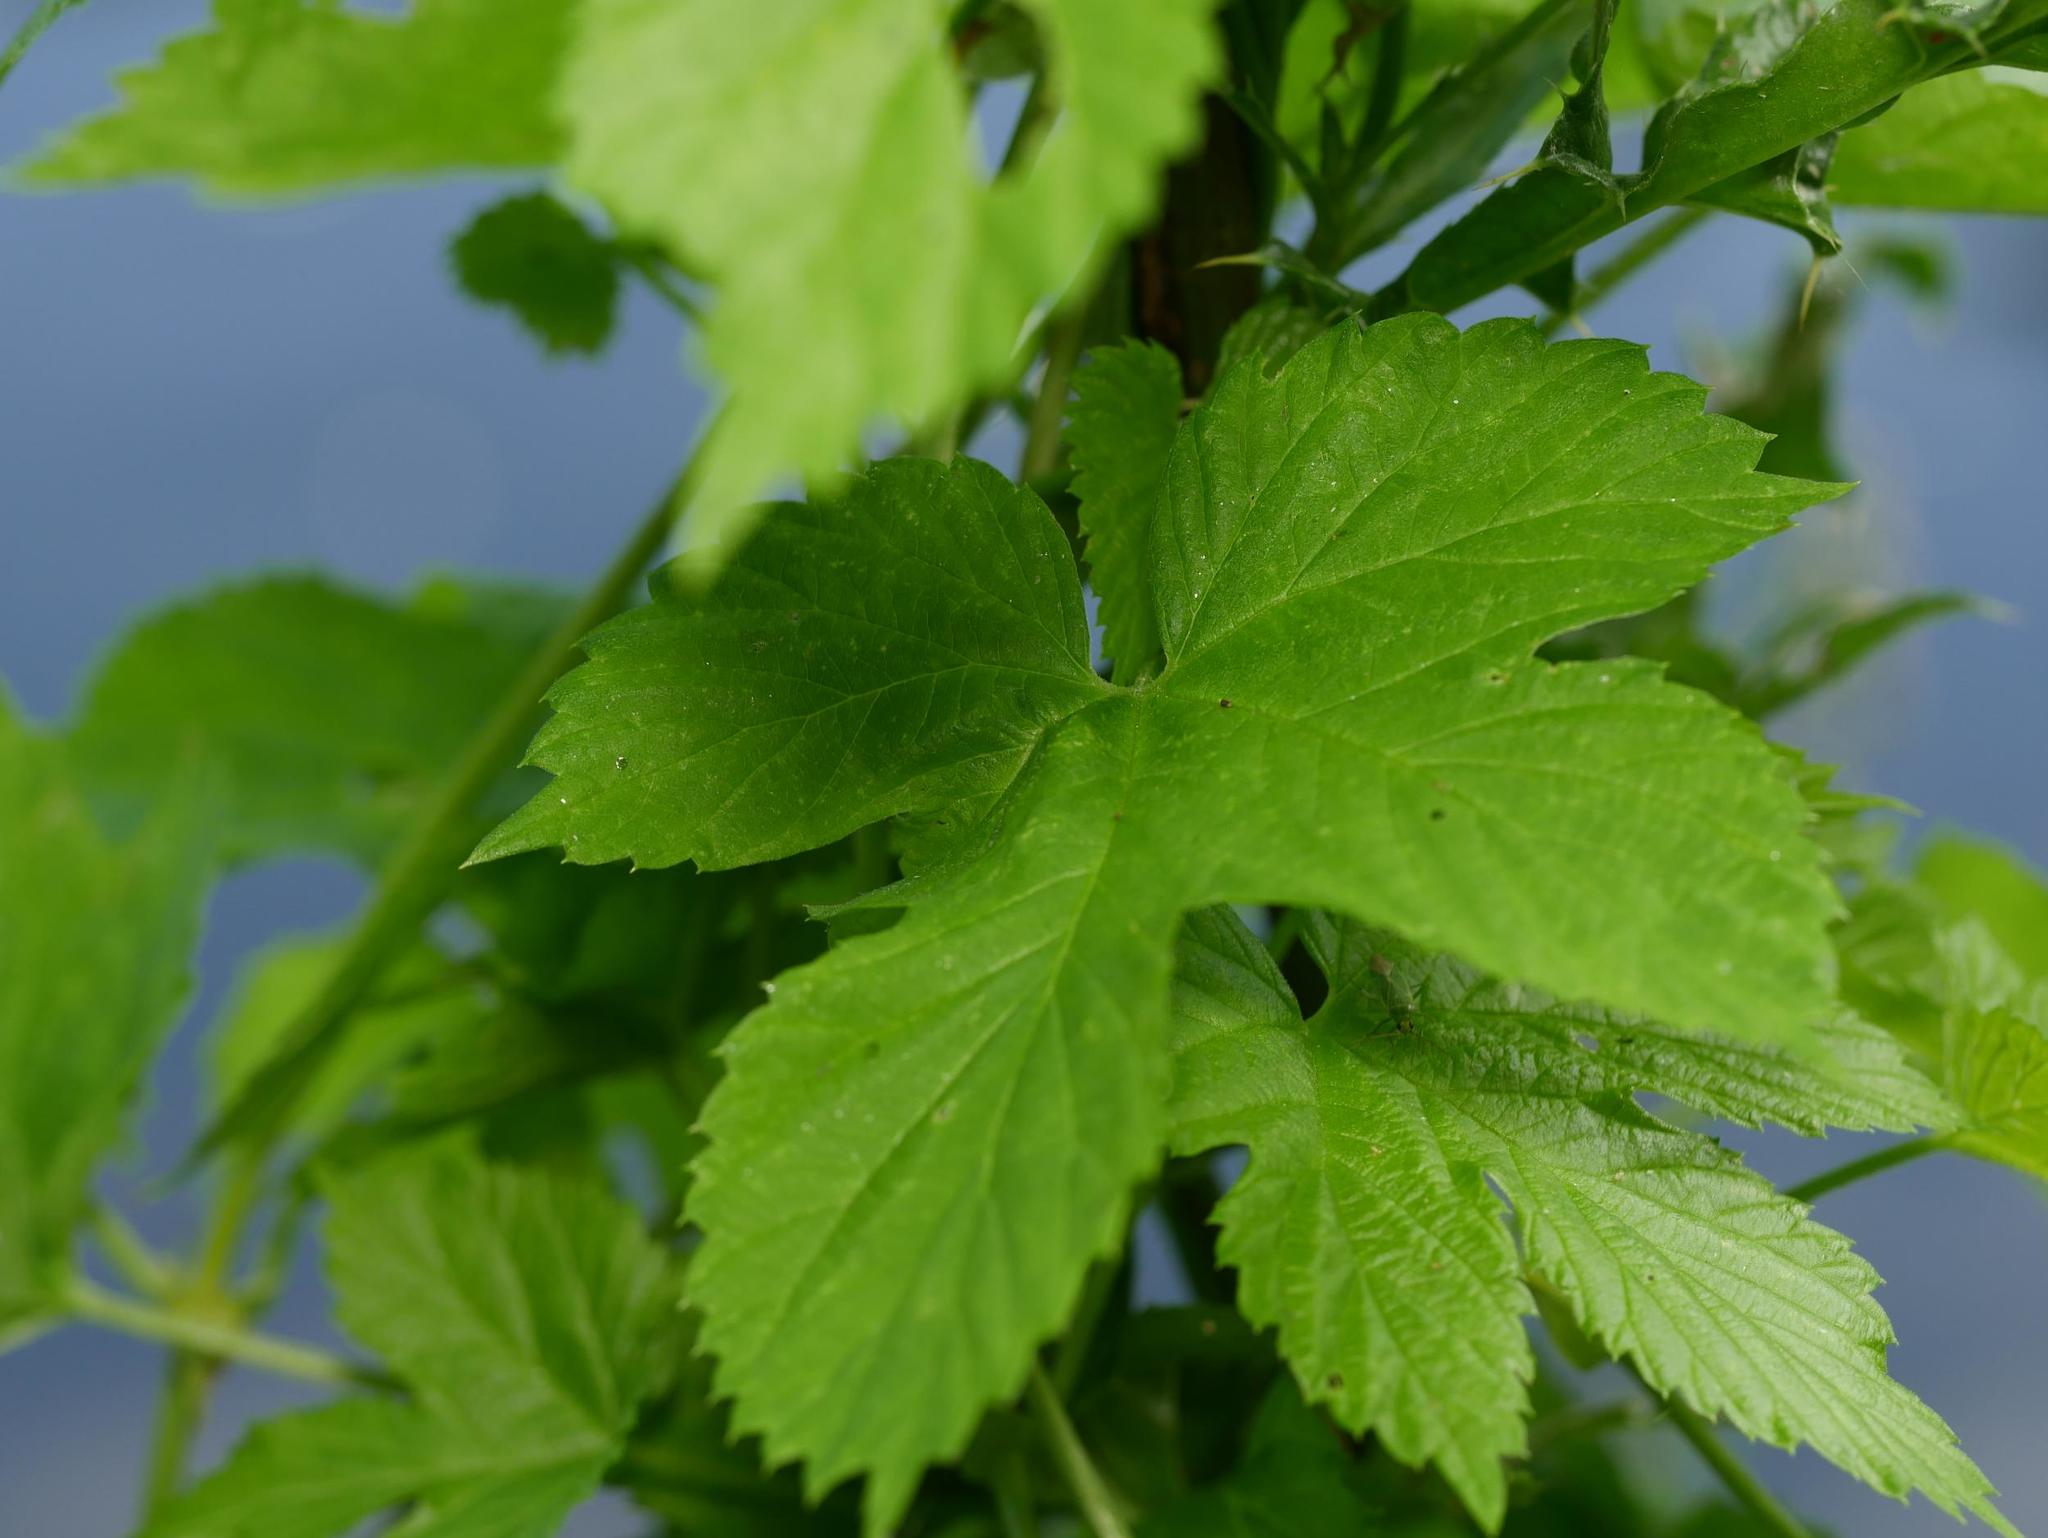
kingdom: Plantae
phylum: Tracheophyta
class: Magnoliopsida
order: Rosales
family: Cannabaceae
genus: Humulus
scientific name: Humulus lupulus
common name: Hop
